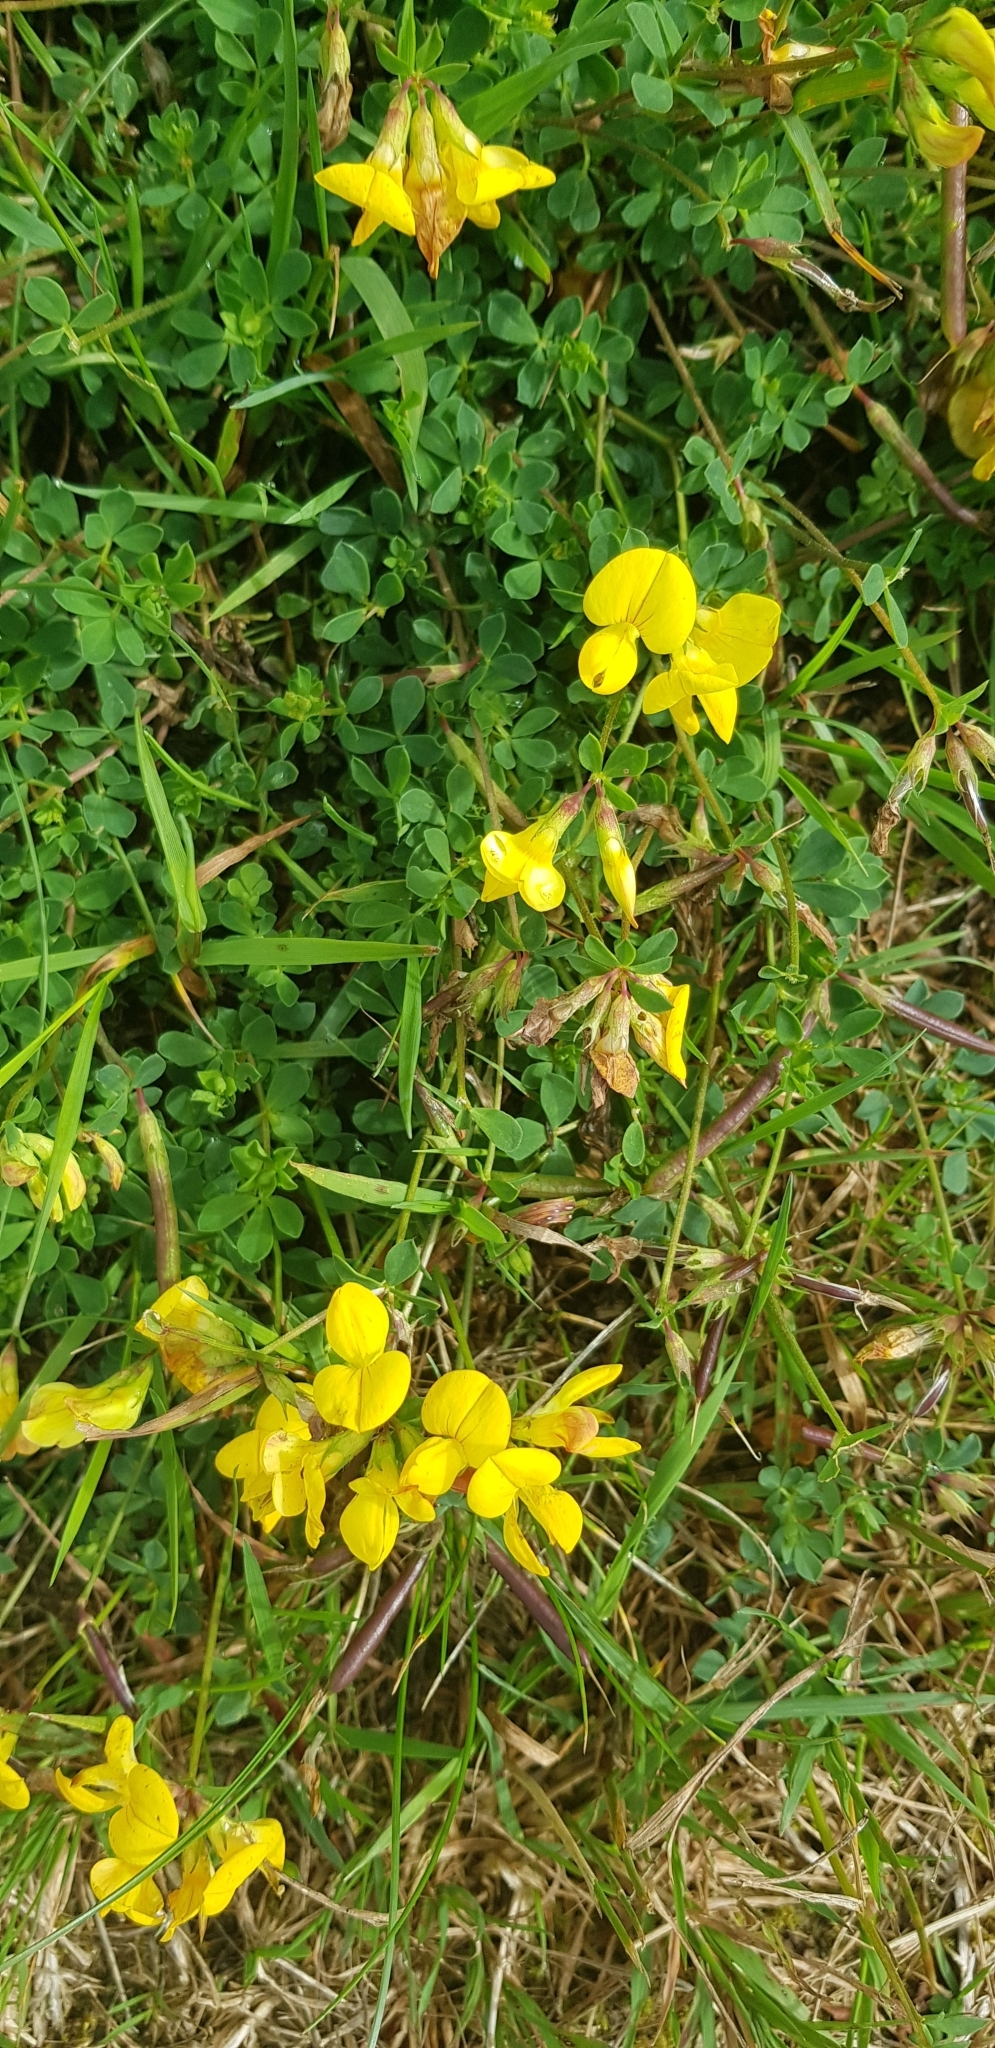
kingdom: Plantae
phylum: Tracheophyta
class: Magnoliopsida
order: Fabales
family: Fabaceae
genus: Lotus
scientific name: Lotus corniculatus
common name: Common bird's-foot-trefoil
